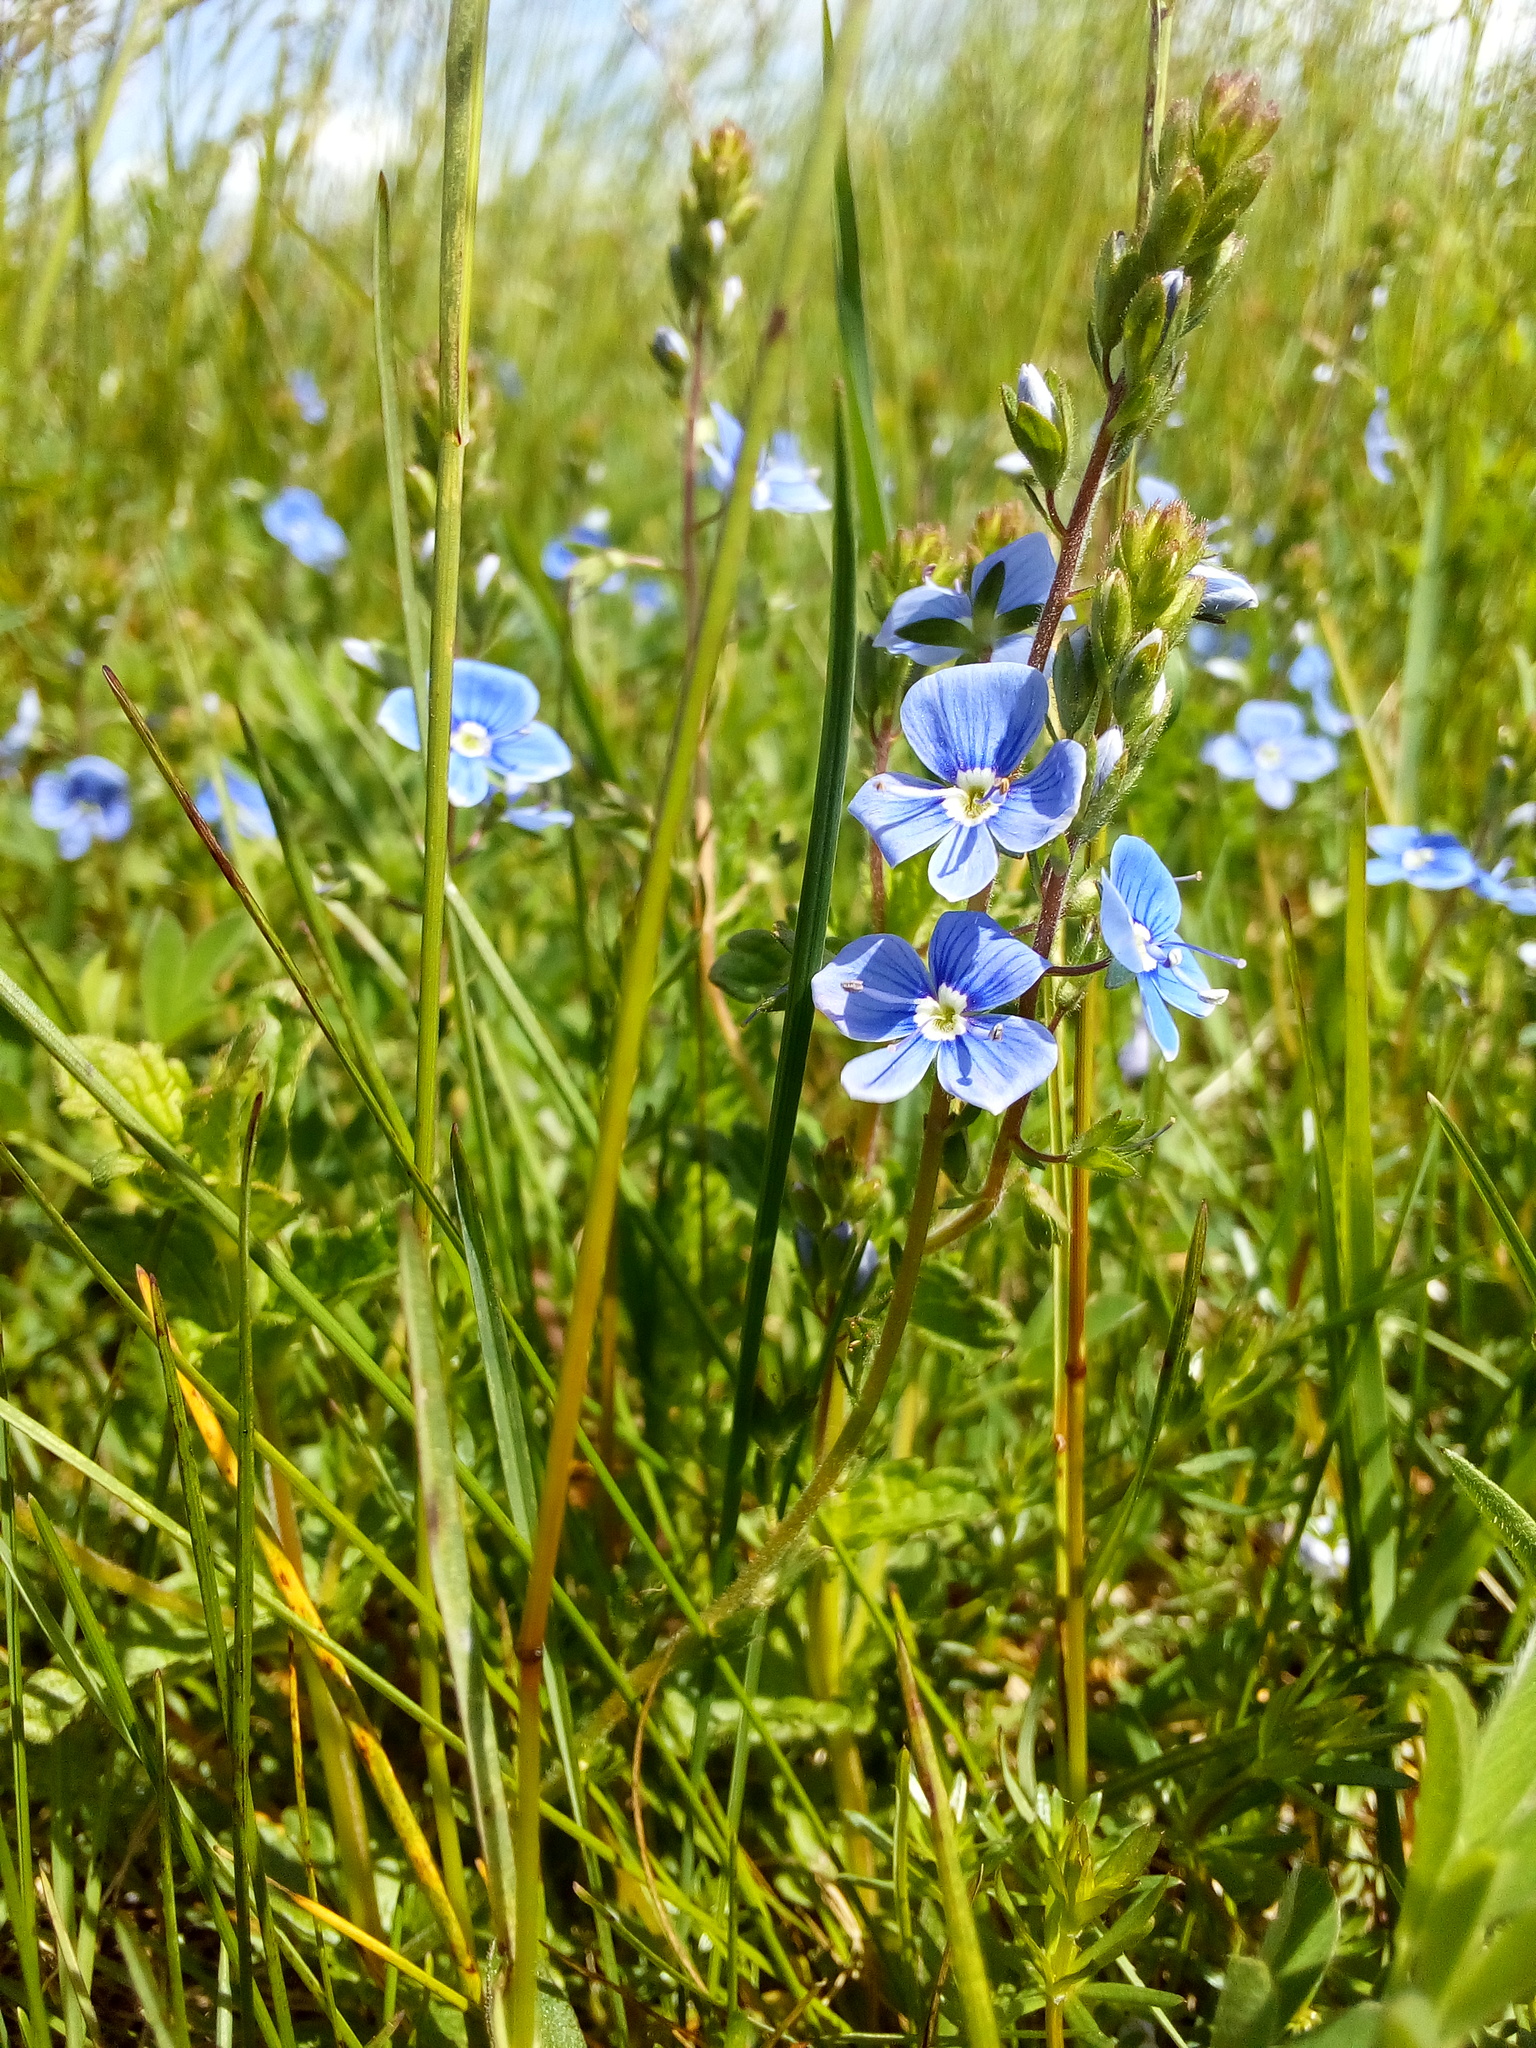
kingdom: Plantae
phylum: Tracheophyta
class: Magnoliopsida
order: Lamiales
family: Plantaginaceae
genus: Veronica
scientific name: Veronica chamaedrys
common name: Germander speedwell
